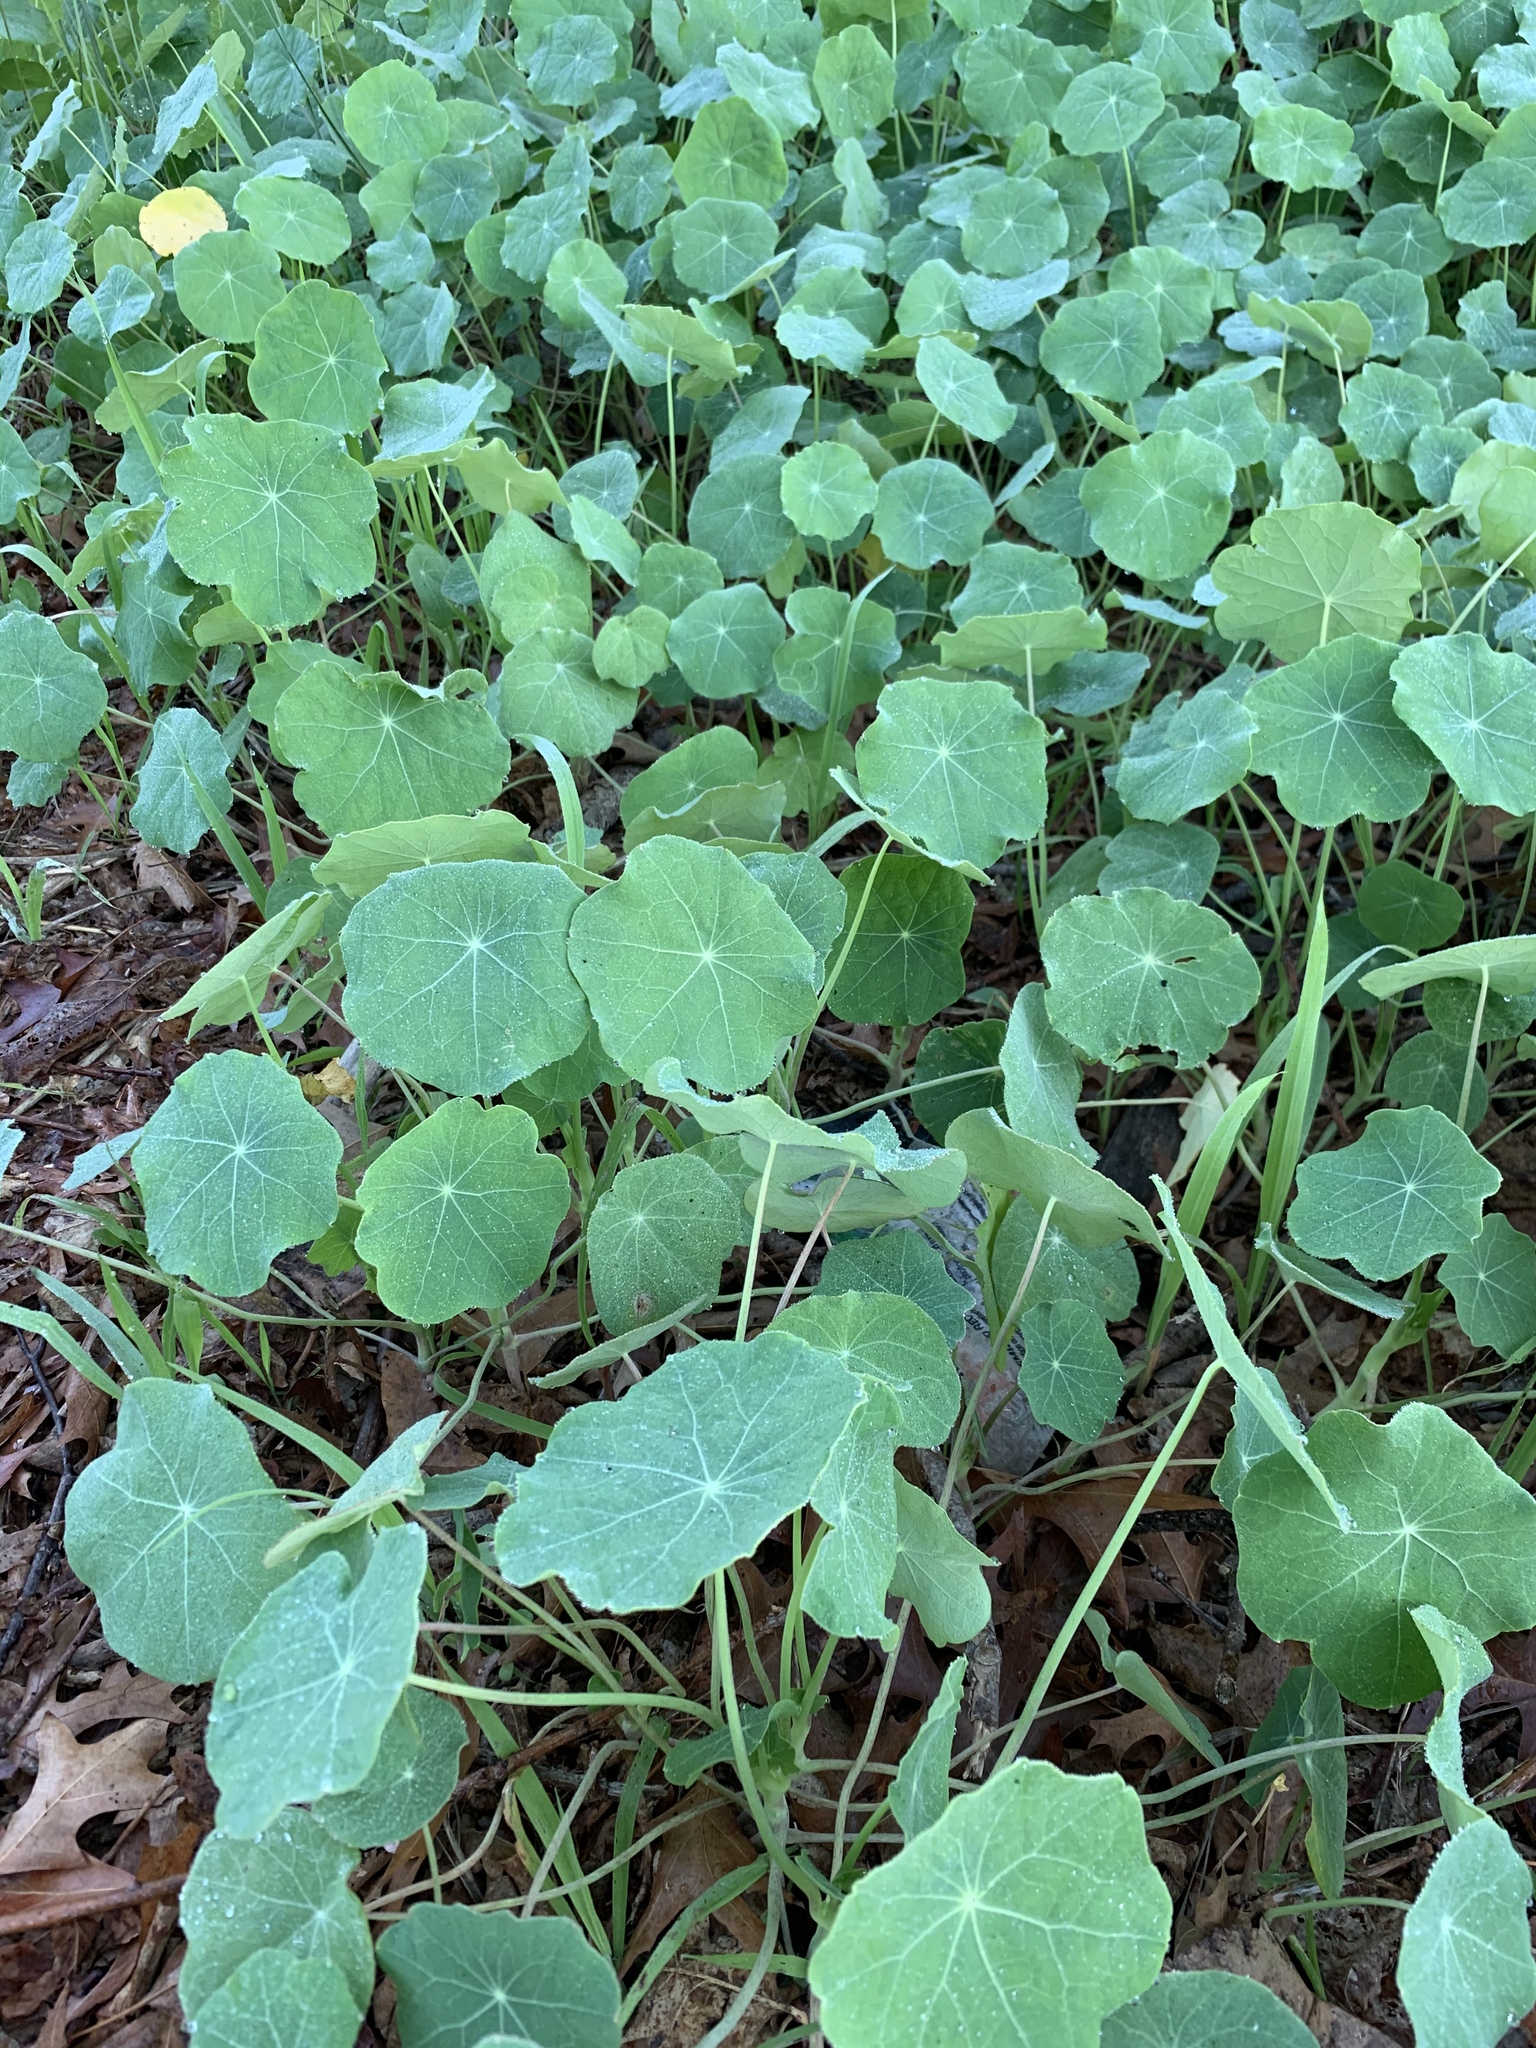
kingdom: Plantae
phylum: Tracheophyta
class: Magnoliopsida
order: Brassicales
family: Tropaeolaceae
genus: Tropaeolum
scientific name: Tropaeolum majus
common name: Nasturtium
